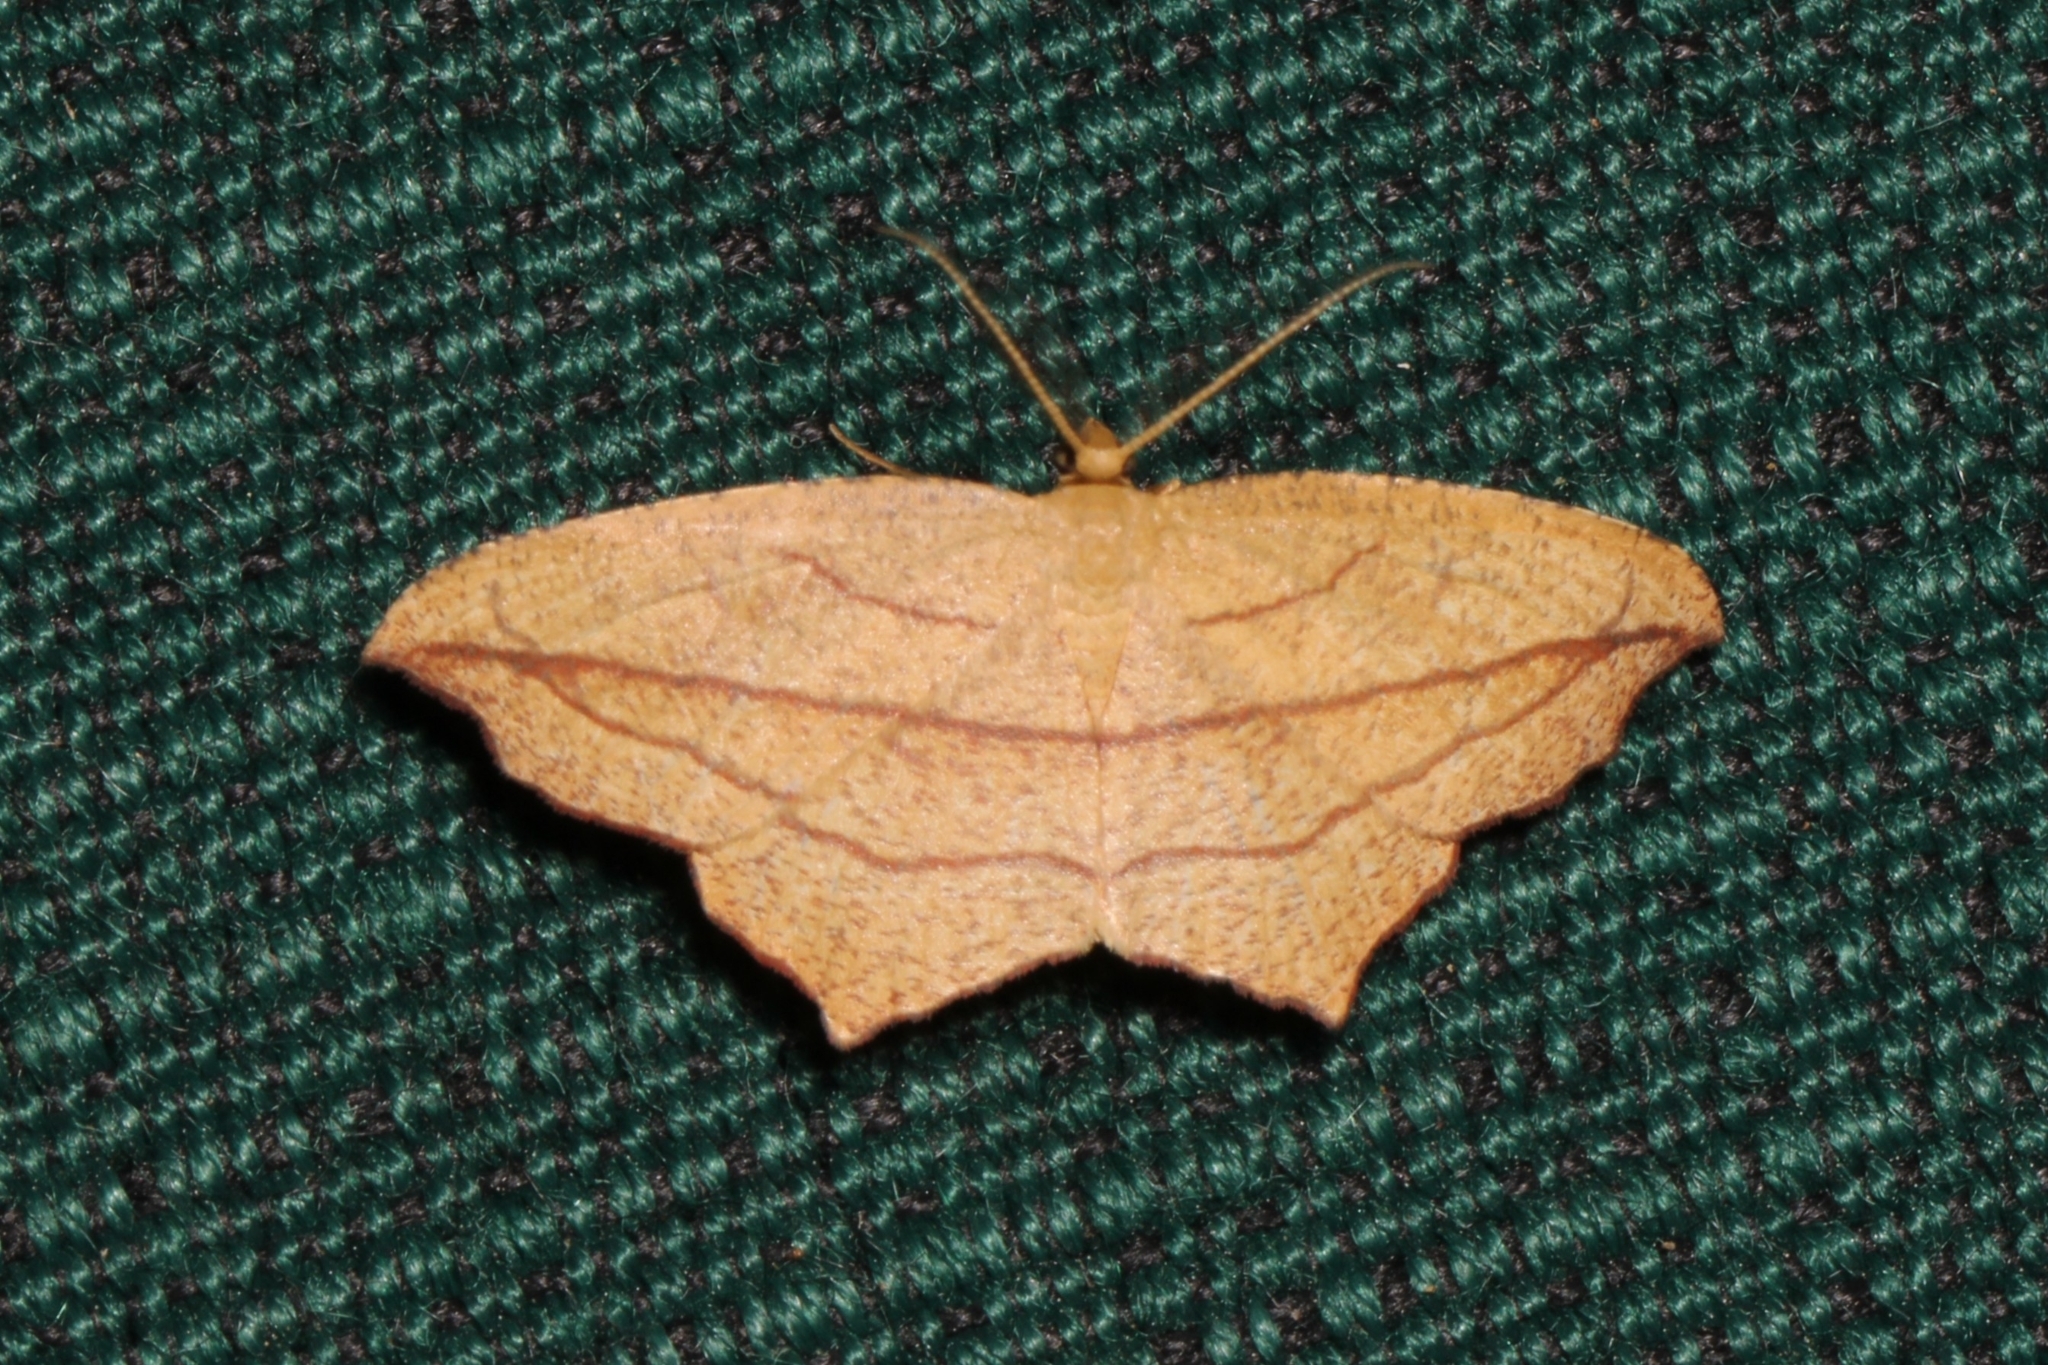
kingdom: Animalia
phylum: Arthropoda
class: Insecta
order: Lepidoptera
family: Geometridae
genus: Timandra
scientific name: Timandra amaturaria
